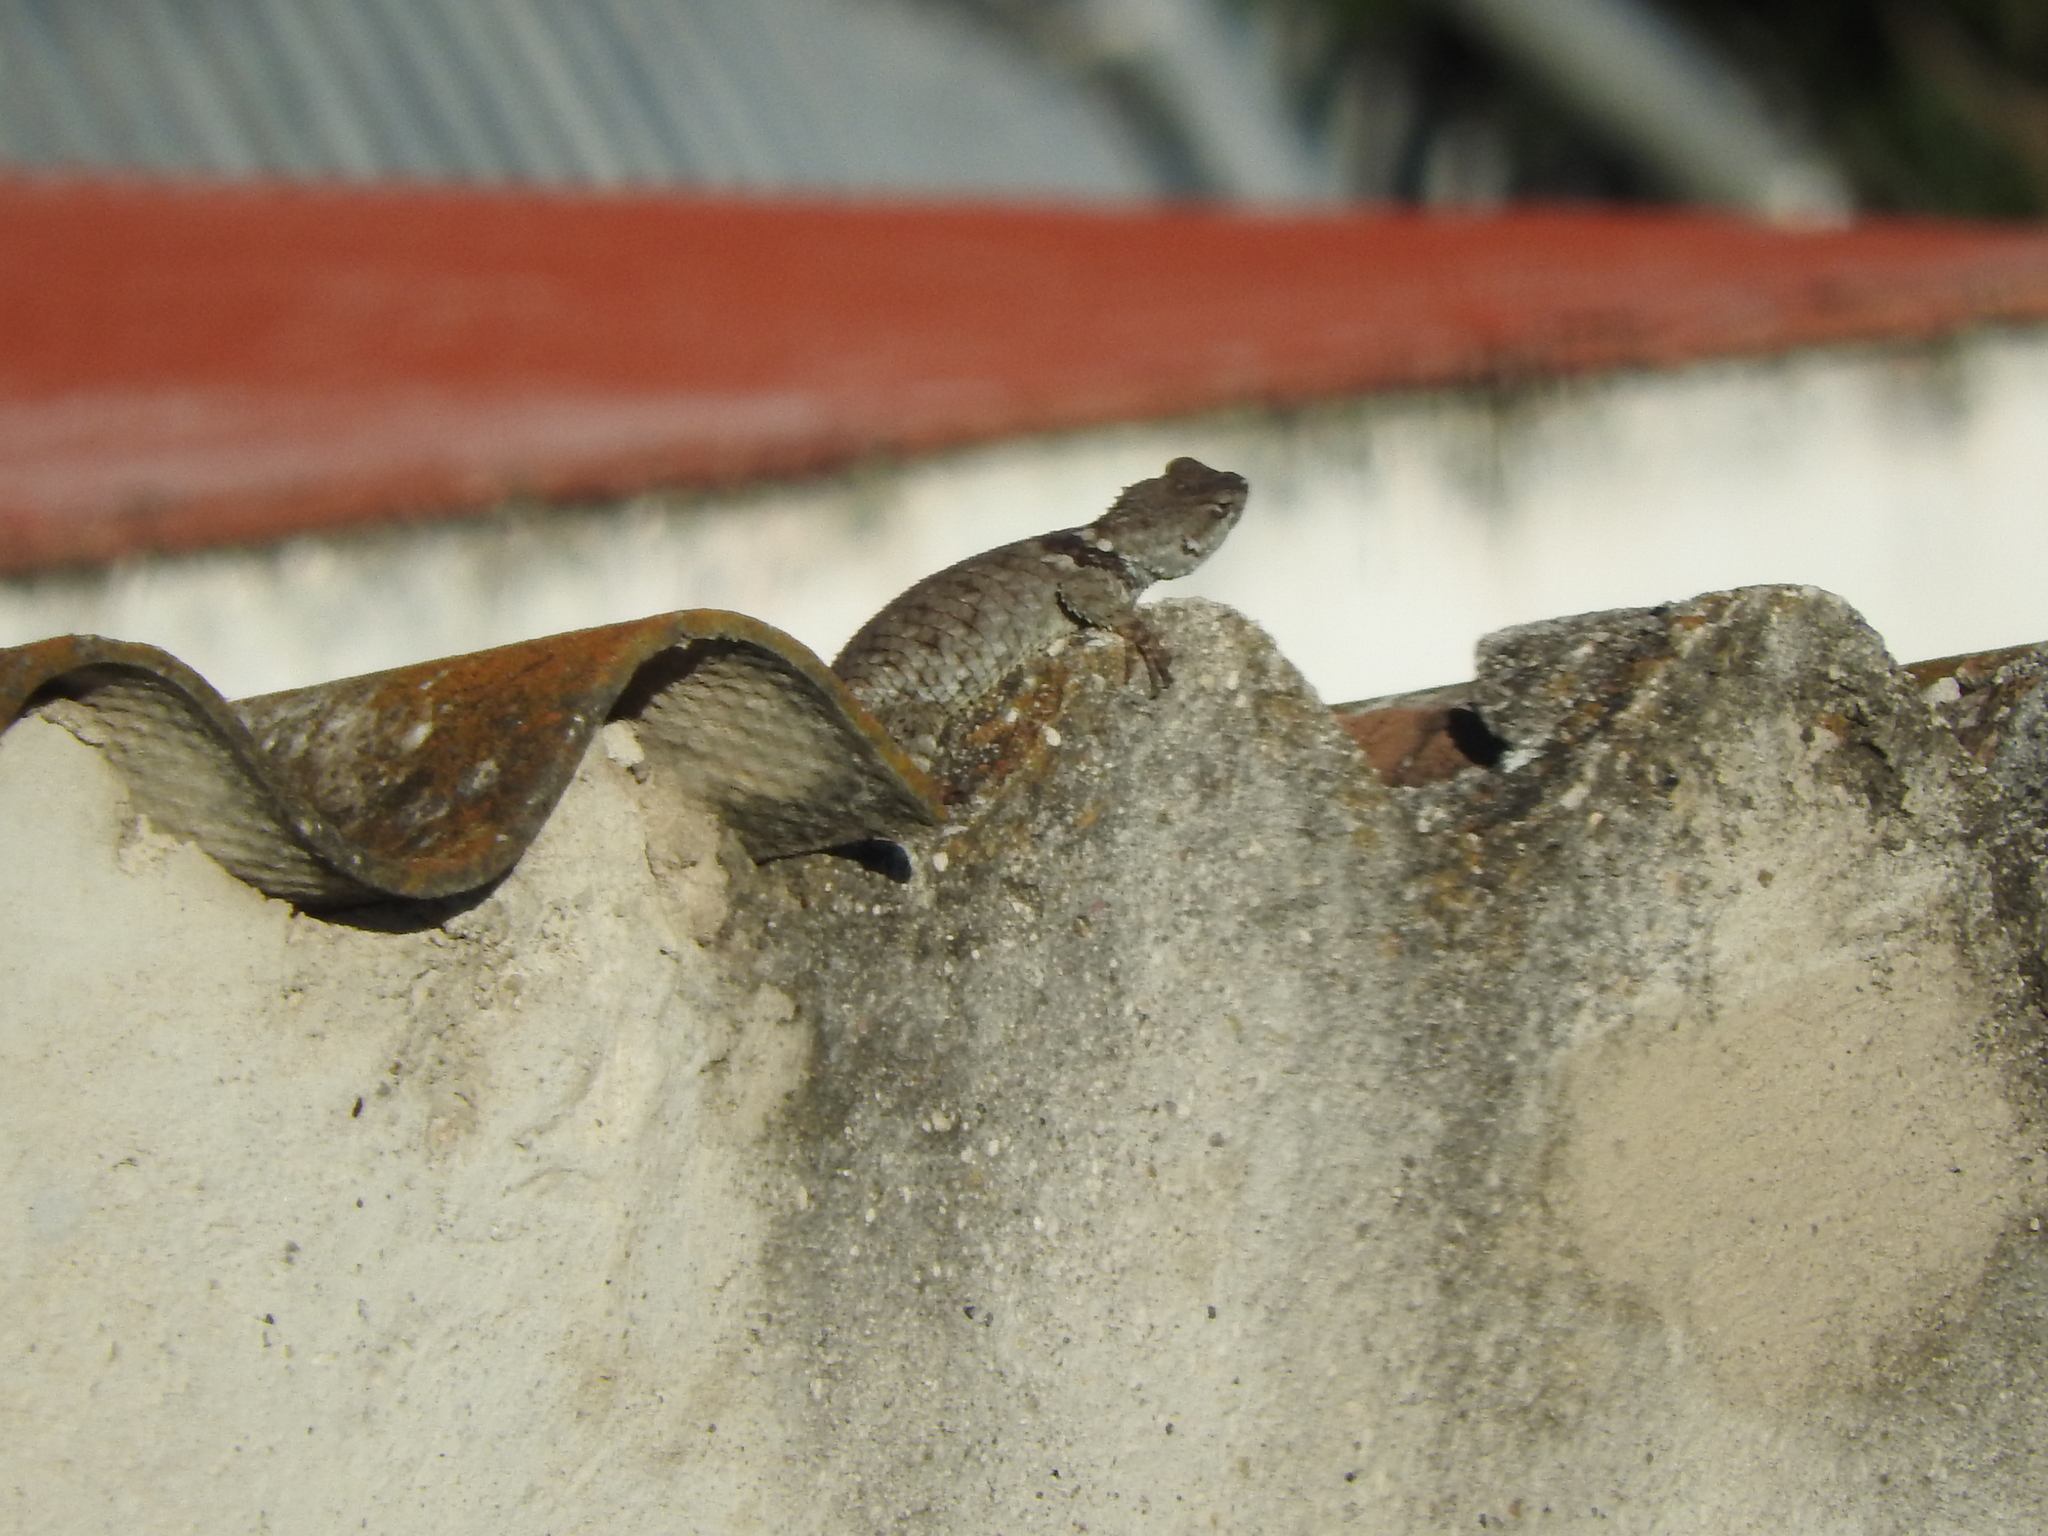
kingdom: Animalia
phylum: Chordata
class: Squamata
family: Phrynosomatidae
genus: Sceloporus
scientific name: Sceloporus torquatus
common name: Central plateau torquate lizard [melanogaster]
